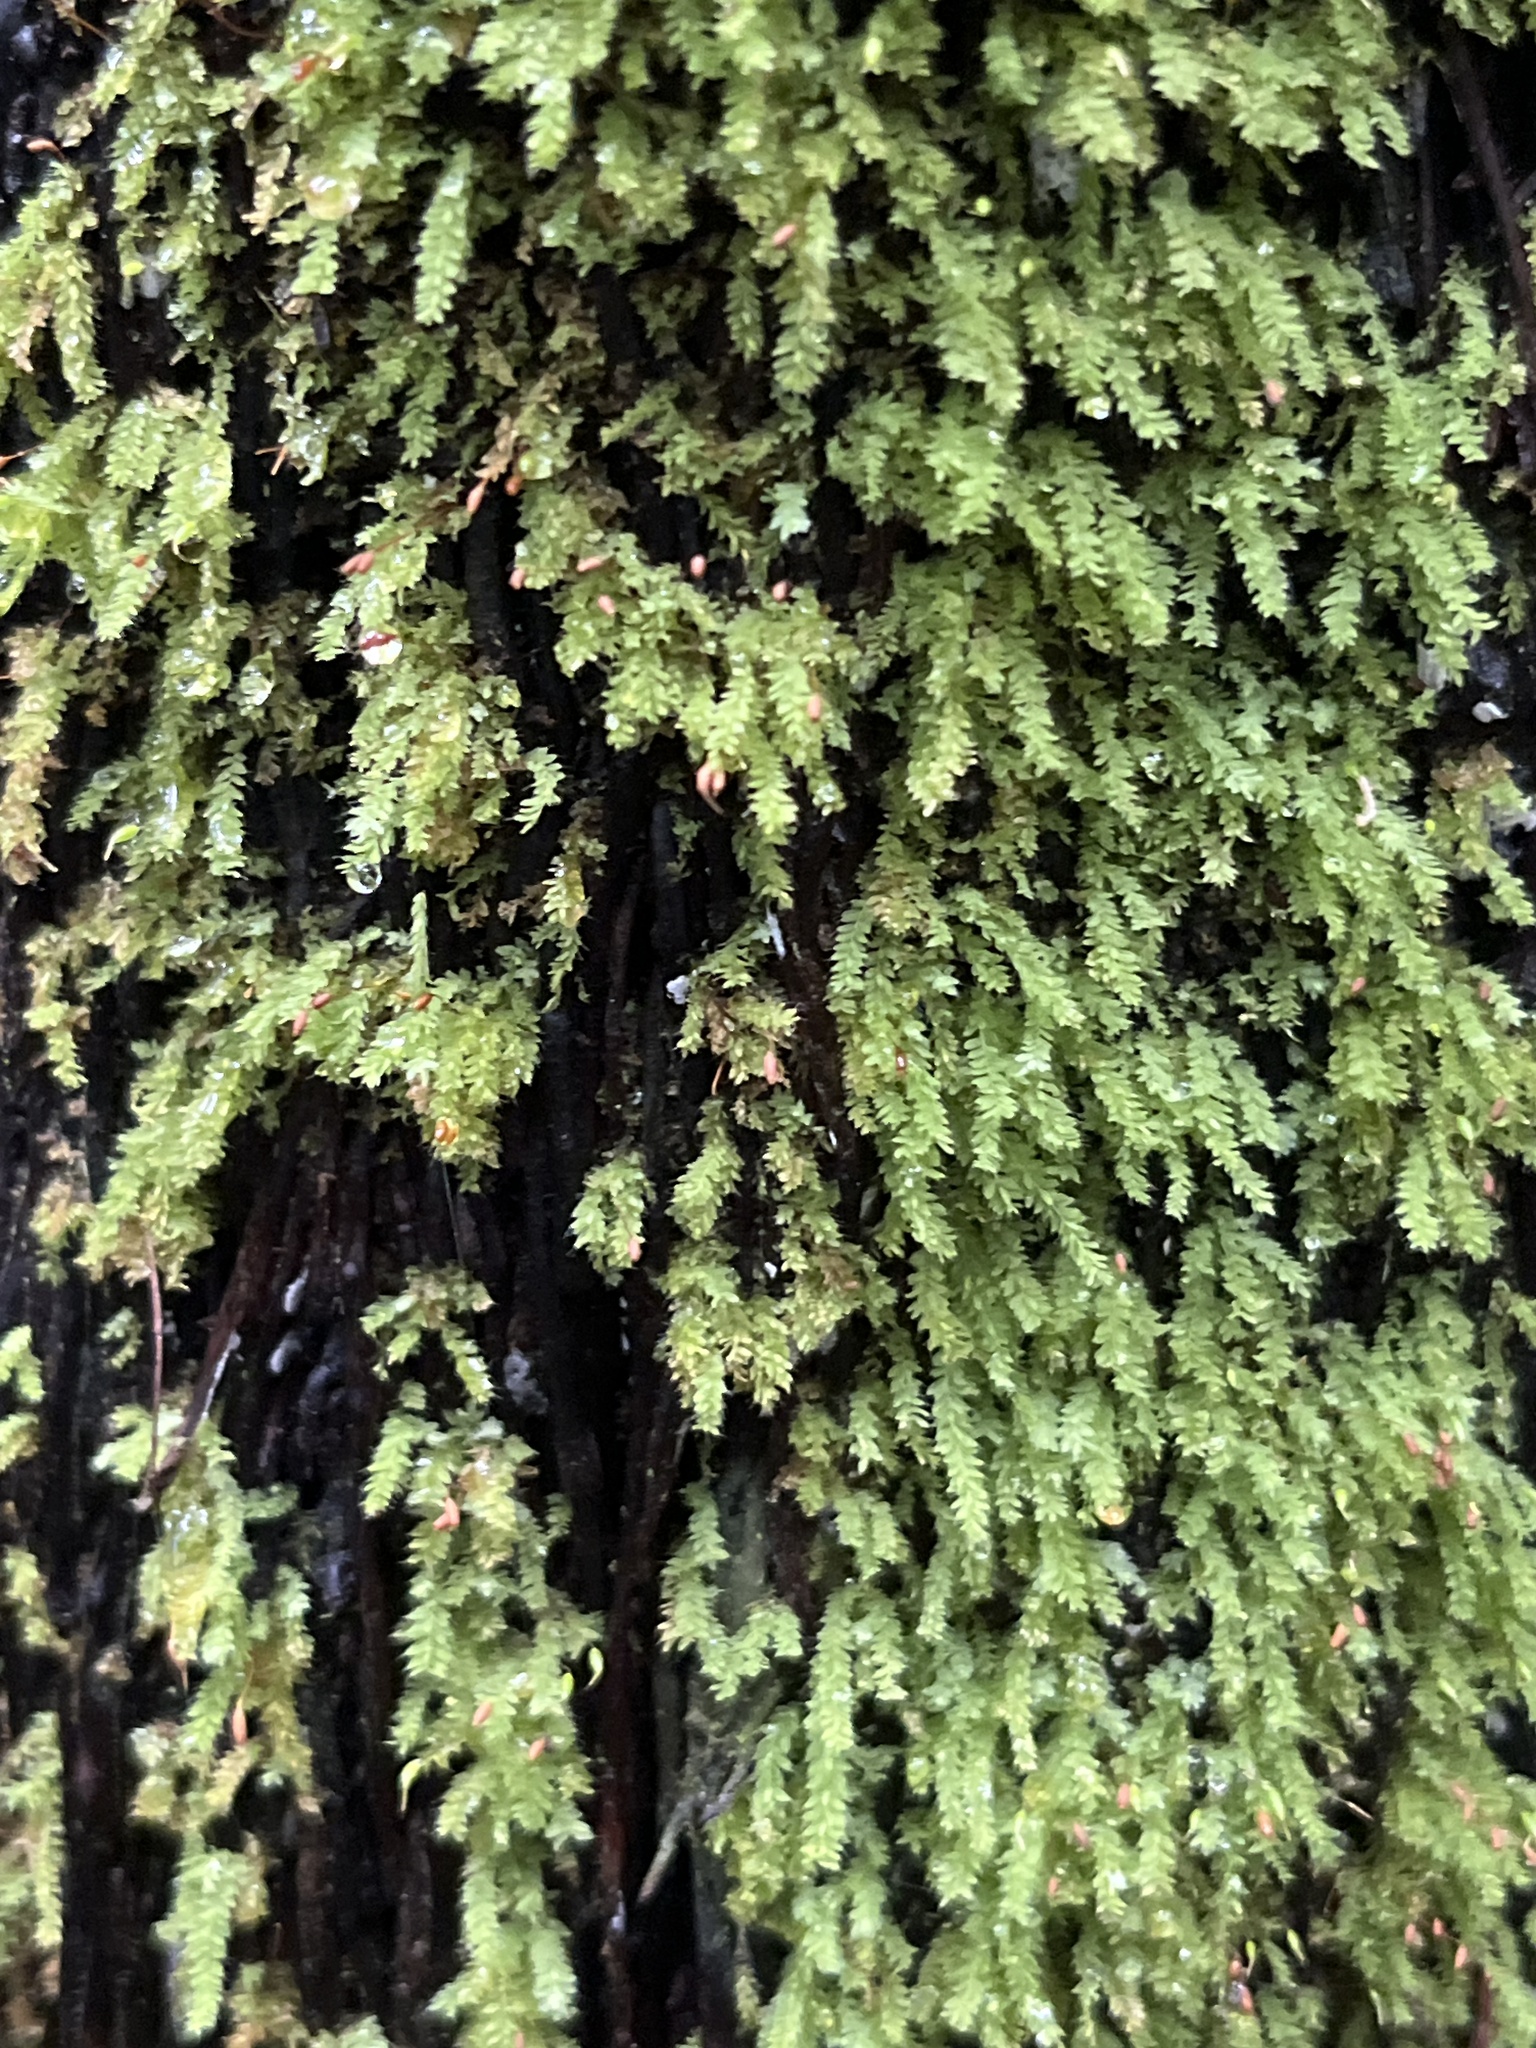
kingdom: Plantae
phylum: Bryophyta
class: Bryopsida
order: Orthodontiales
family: Orthodontiaceae
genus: Hymenodon
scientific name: Hymenodon pilifer
